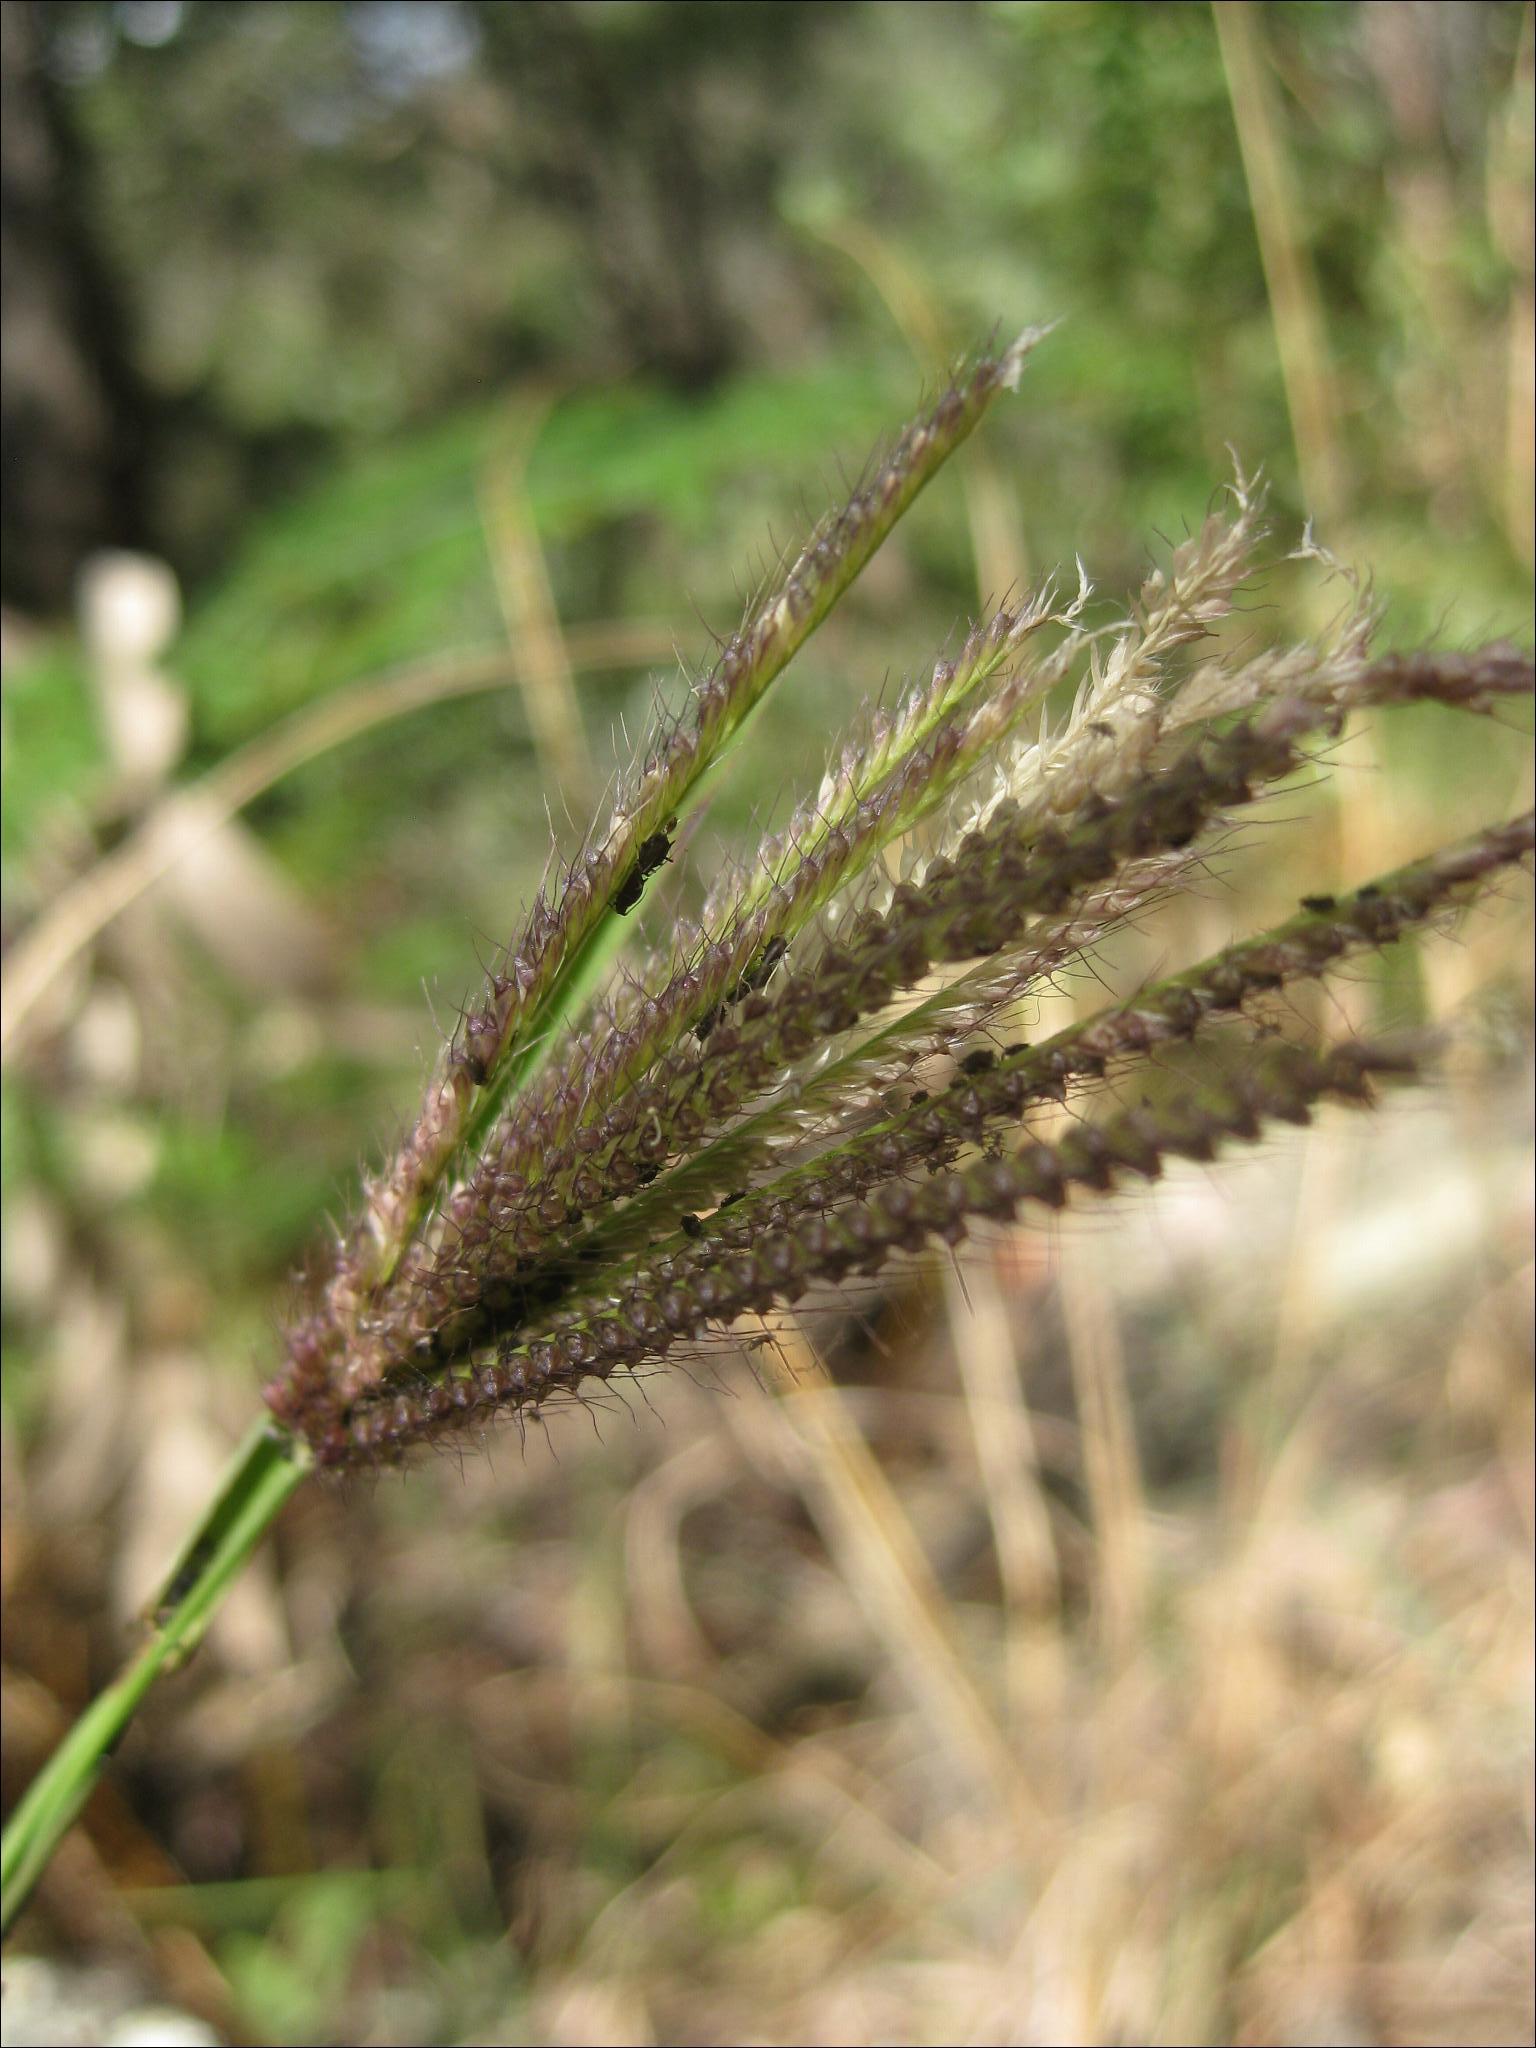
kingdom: Plantae
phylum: Tracheophyta
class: Liliopsida
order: Poales
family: Poaceae
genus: Chloris
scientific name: Chloris barbata
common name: Swollen fingergrass
